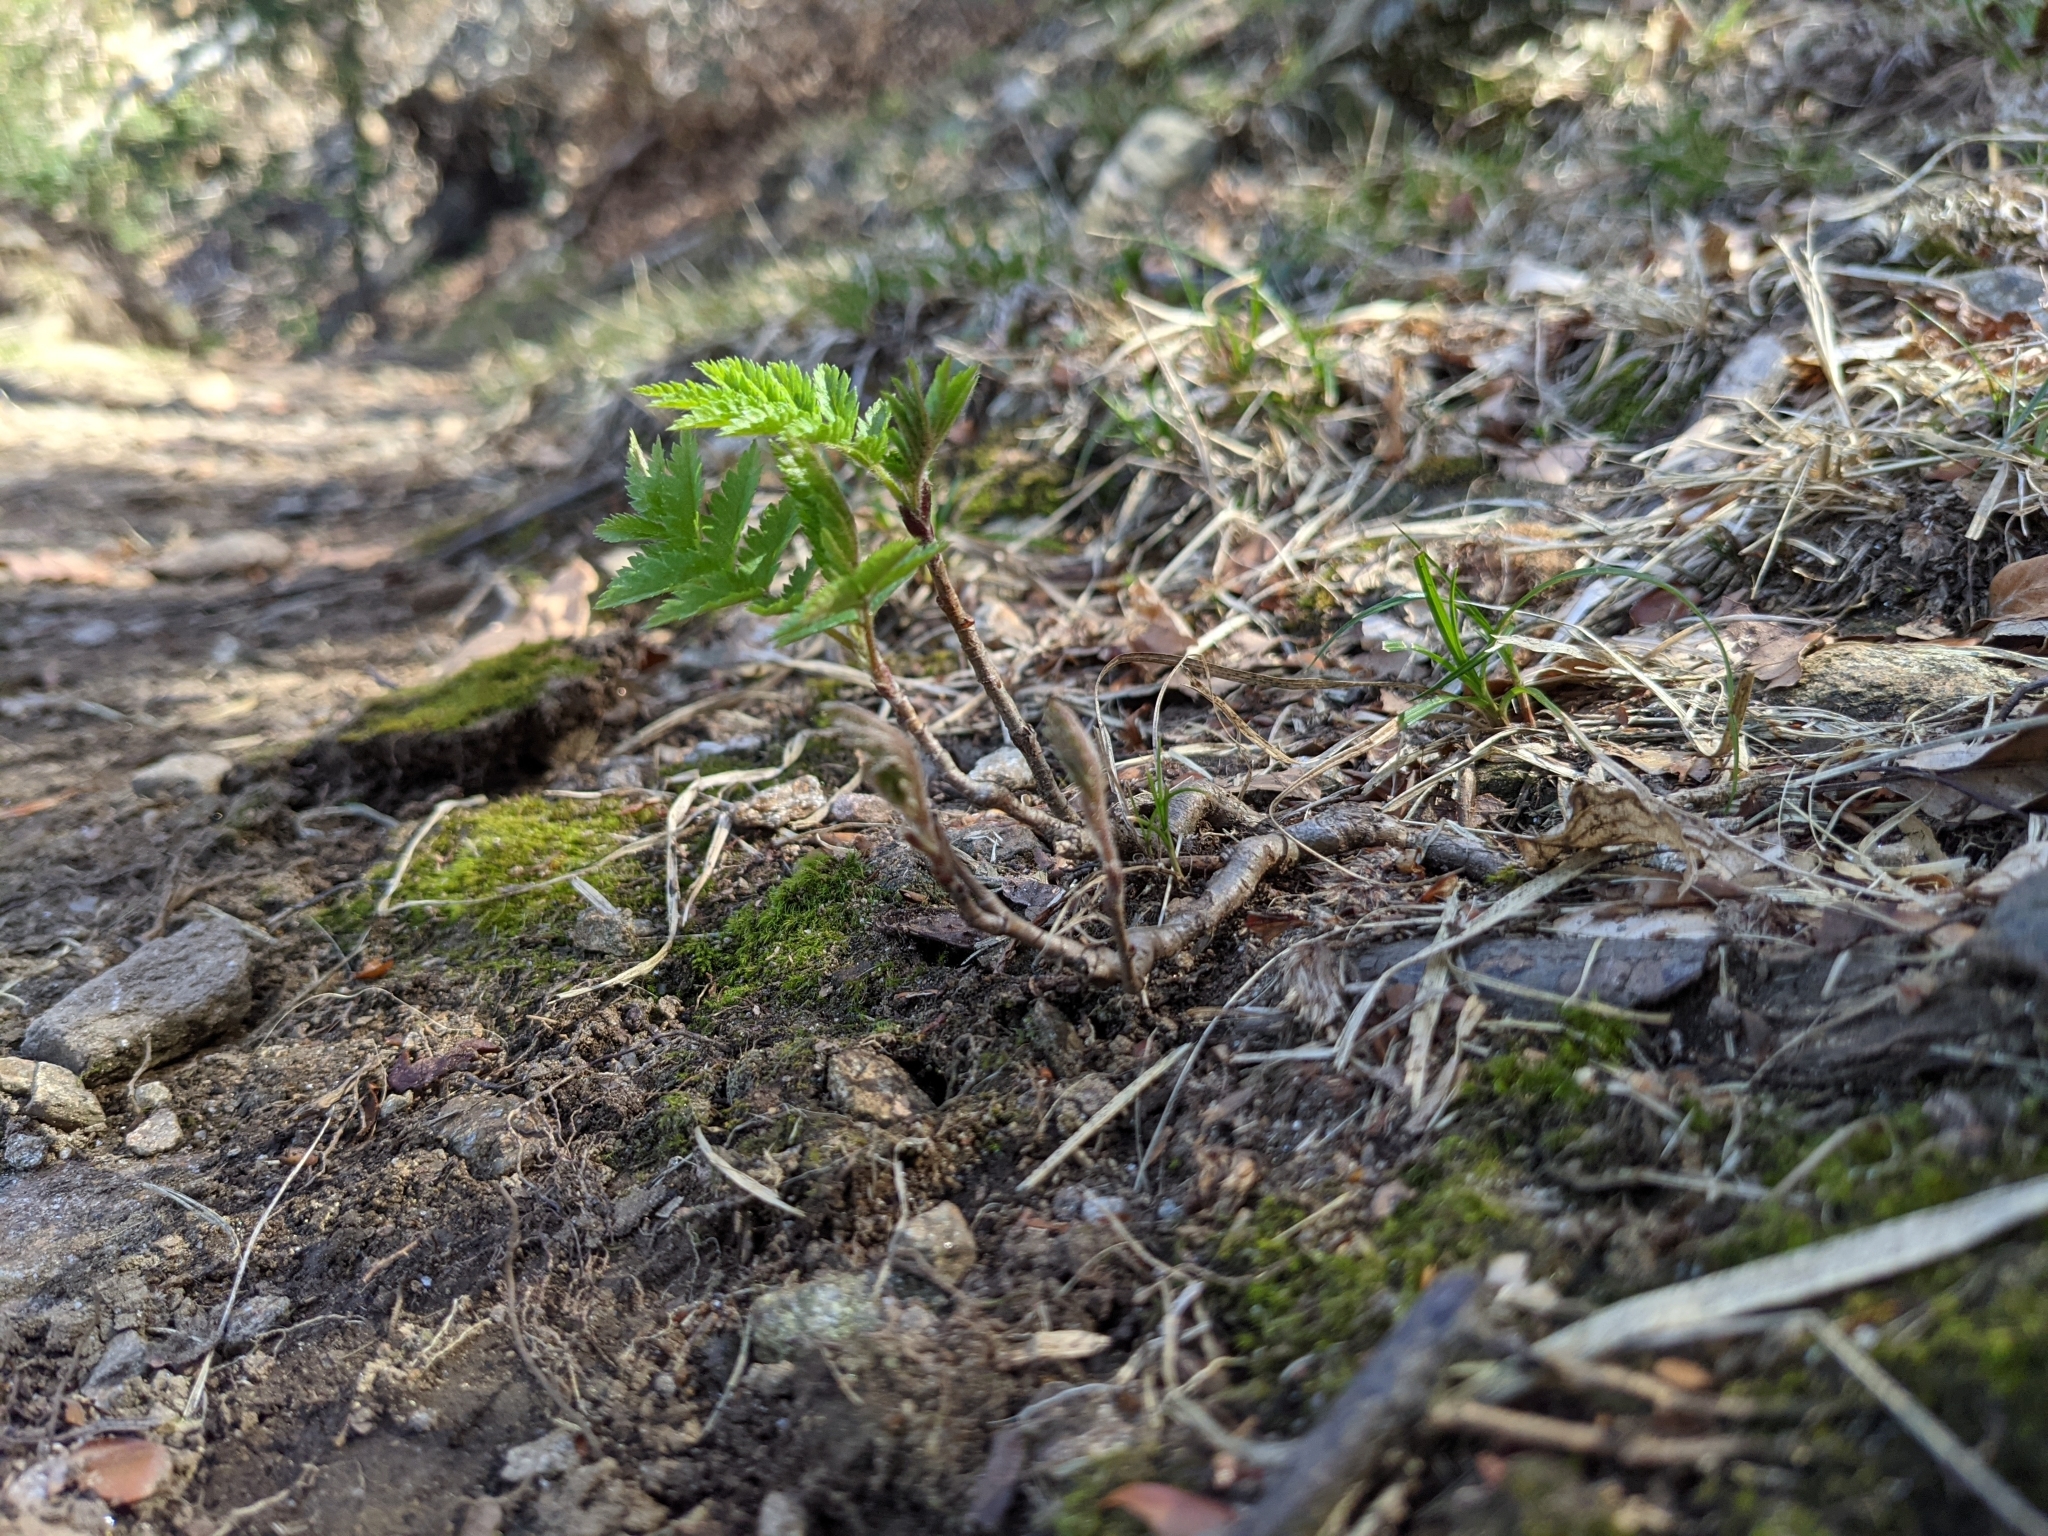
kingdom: Plantae
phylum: Tracheophyta
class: Magnoliopsida
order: Rosales
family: Rosaceae
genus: Sorbus
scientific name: Sorbus aucuparia
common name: Rowan
